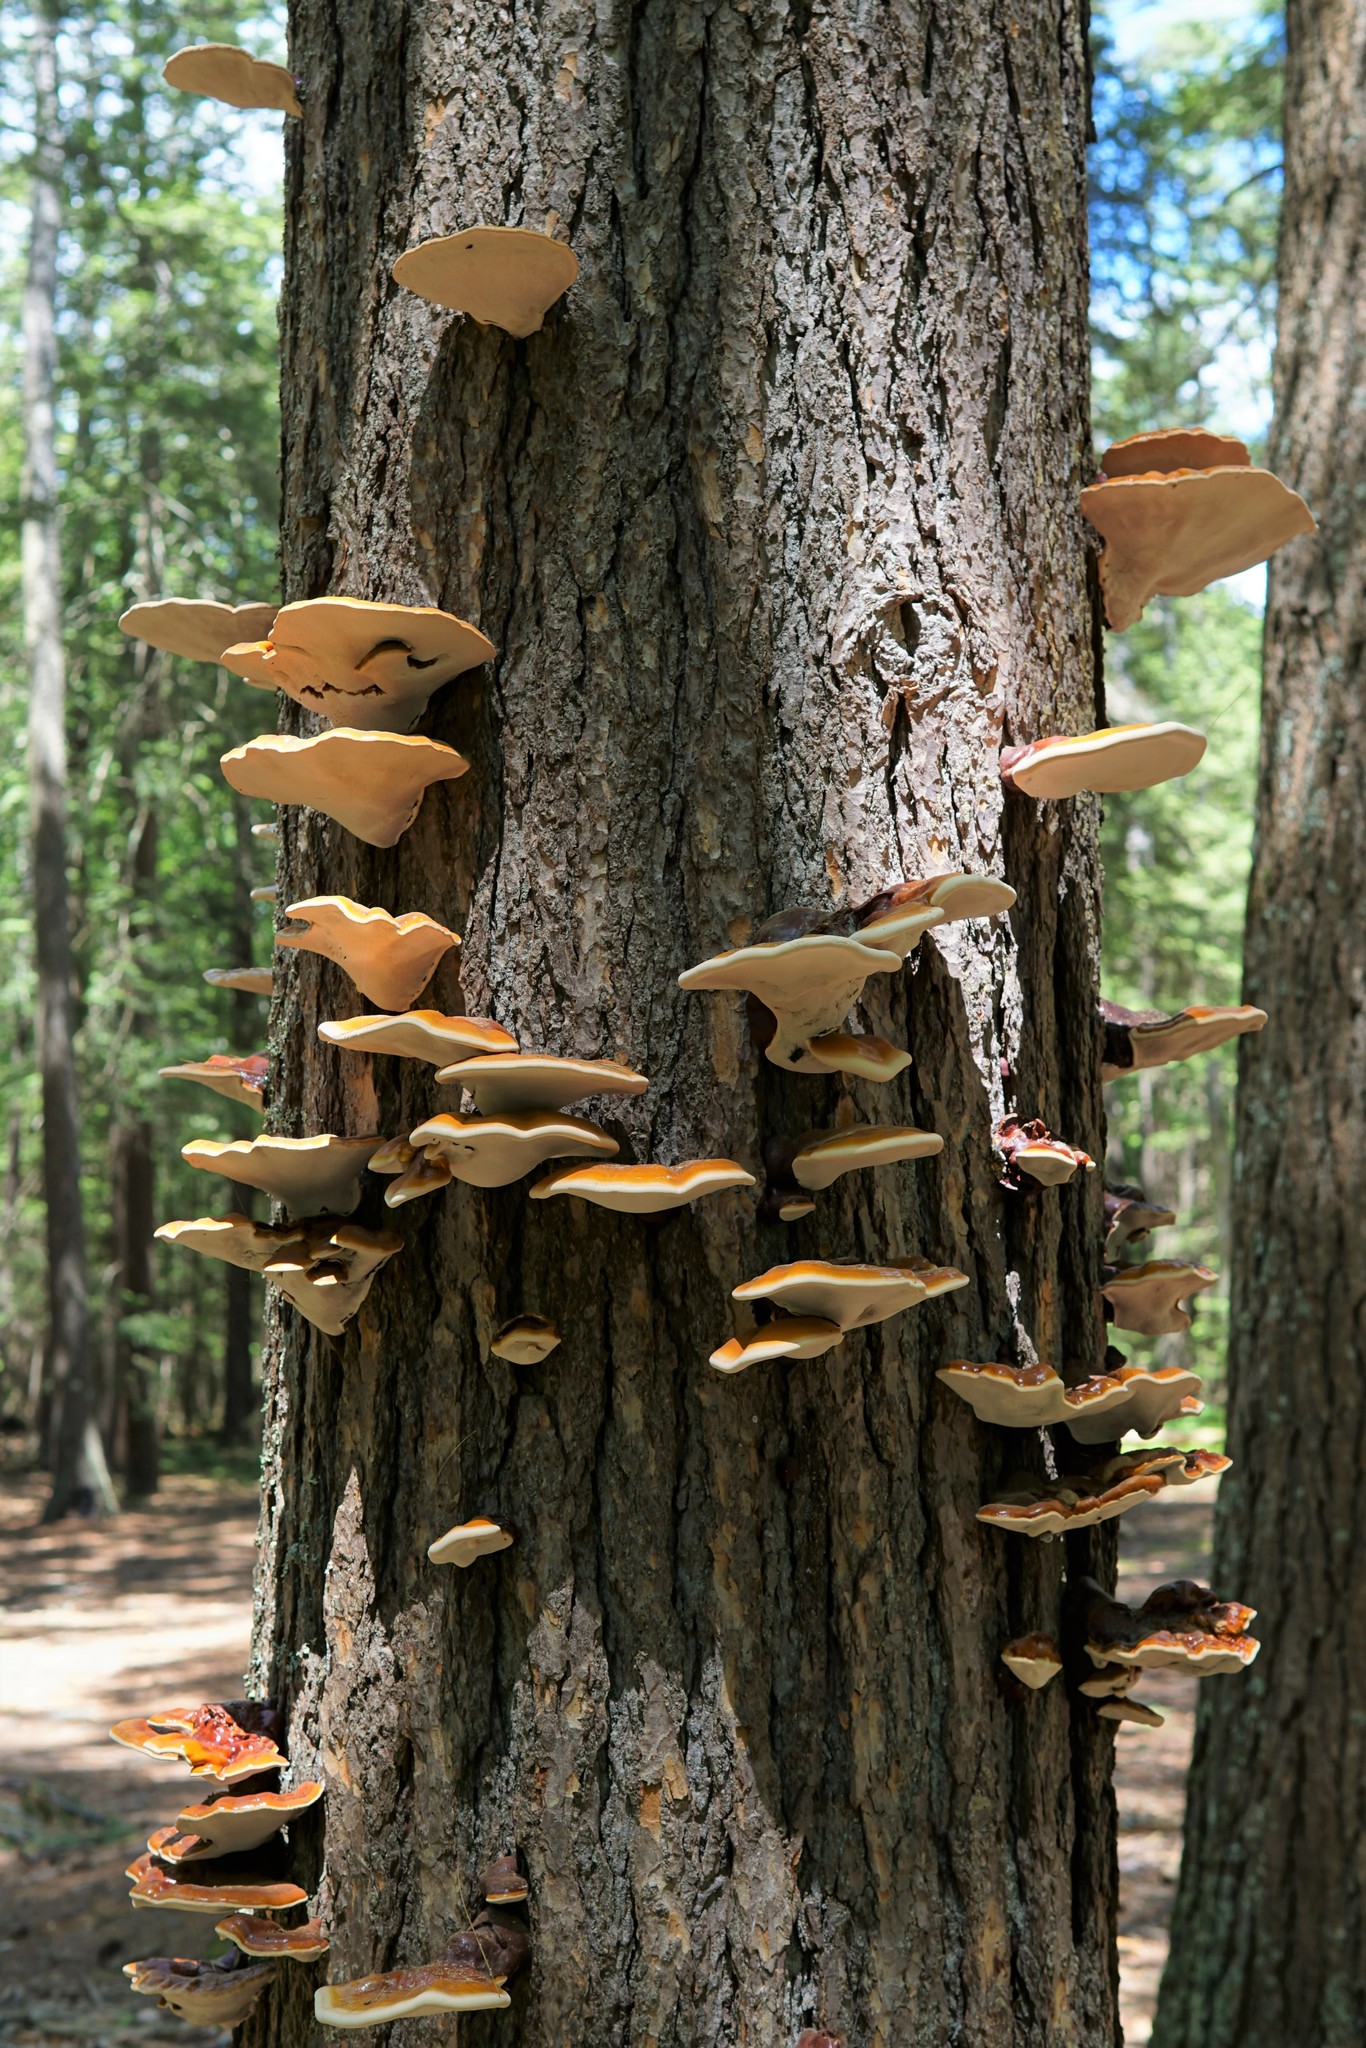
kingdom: Fungi
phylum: Basidiomycota
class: Agaricomycetes
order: Polyporales
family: Polyporaceae
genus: Ganoderma
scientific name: Ganoderma tsugae
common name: Hemlock varnish shelf
